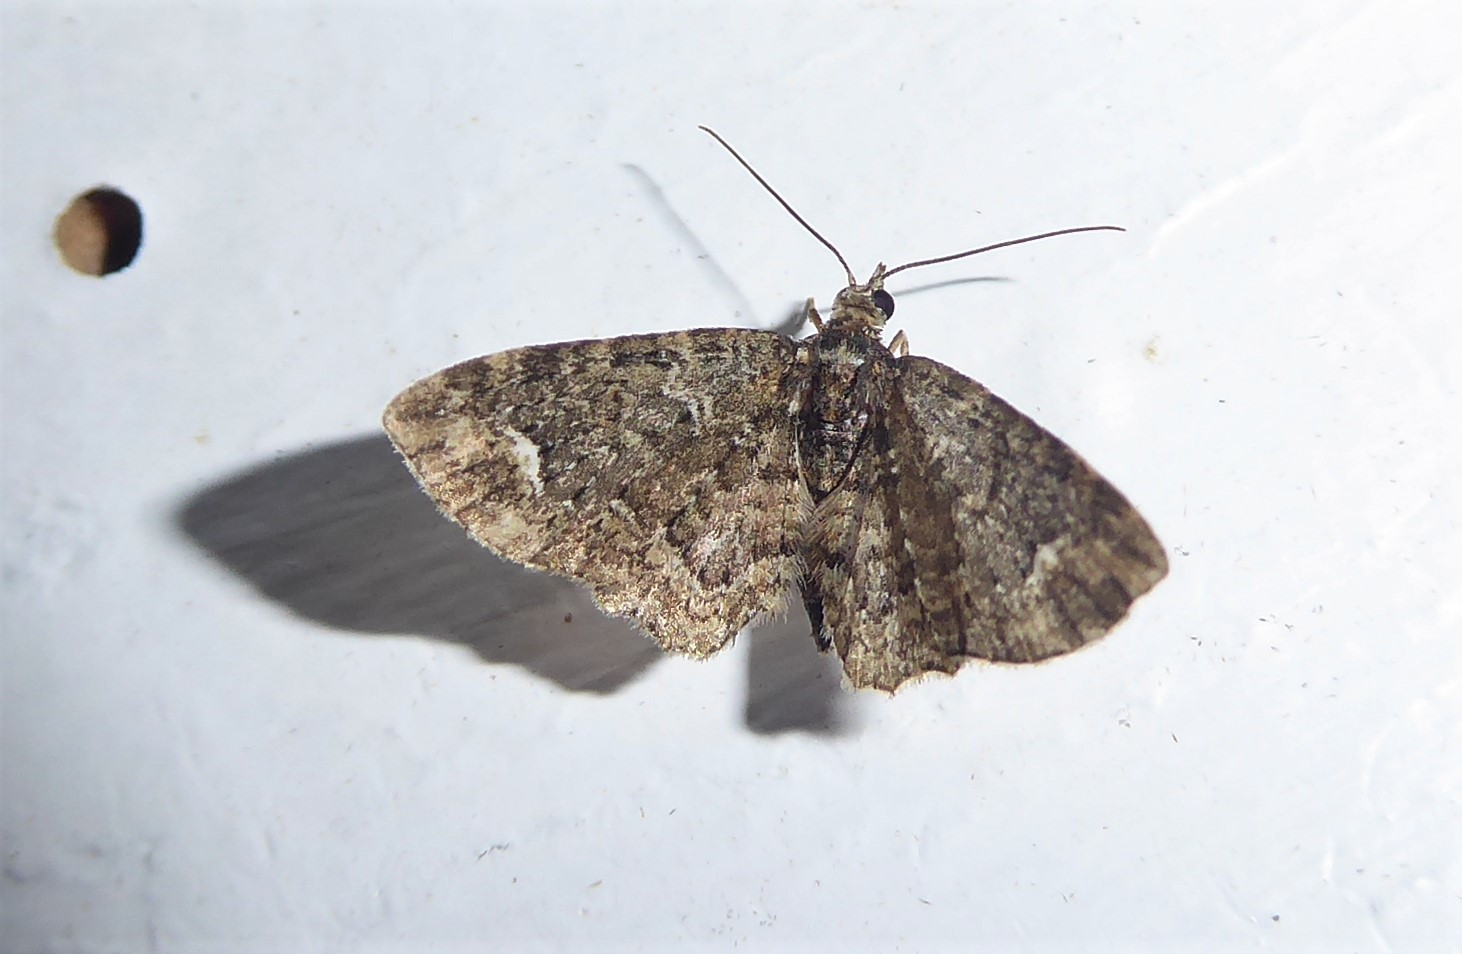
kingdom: Animalia
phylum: Arthropoda
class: Insecta
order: Lepidoptera
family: Geometridae
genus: Pasiphilodes
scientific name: Pasiphilodes testulata
